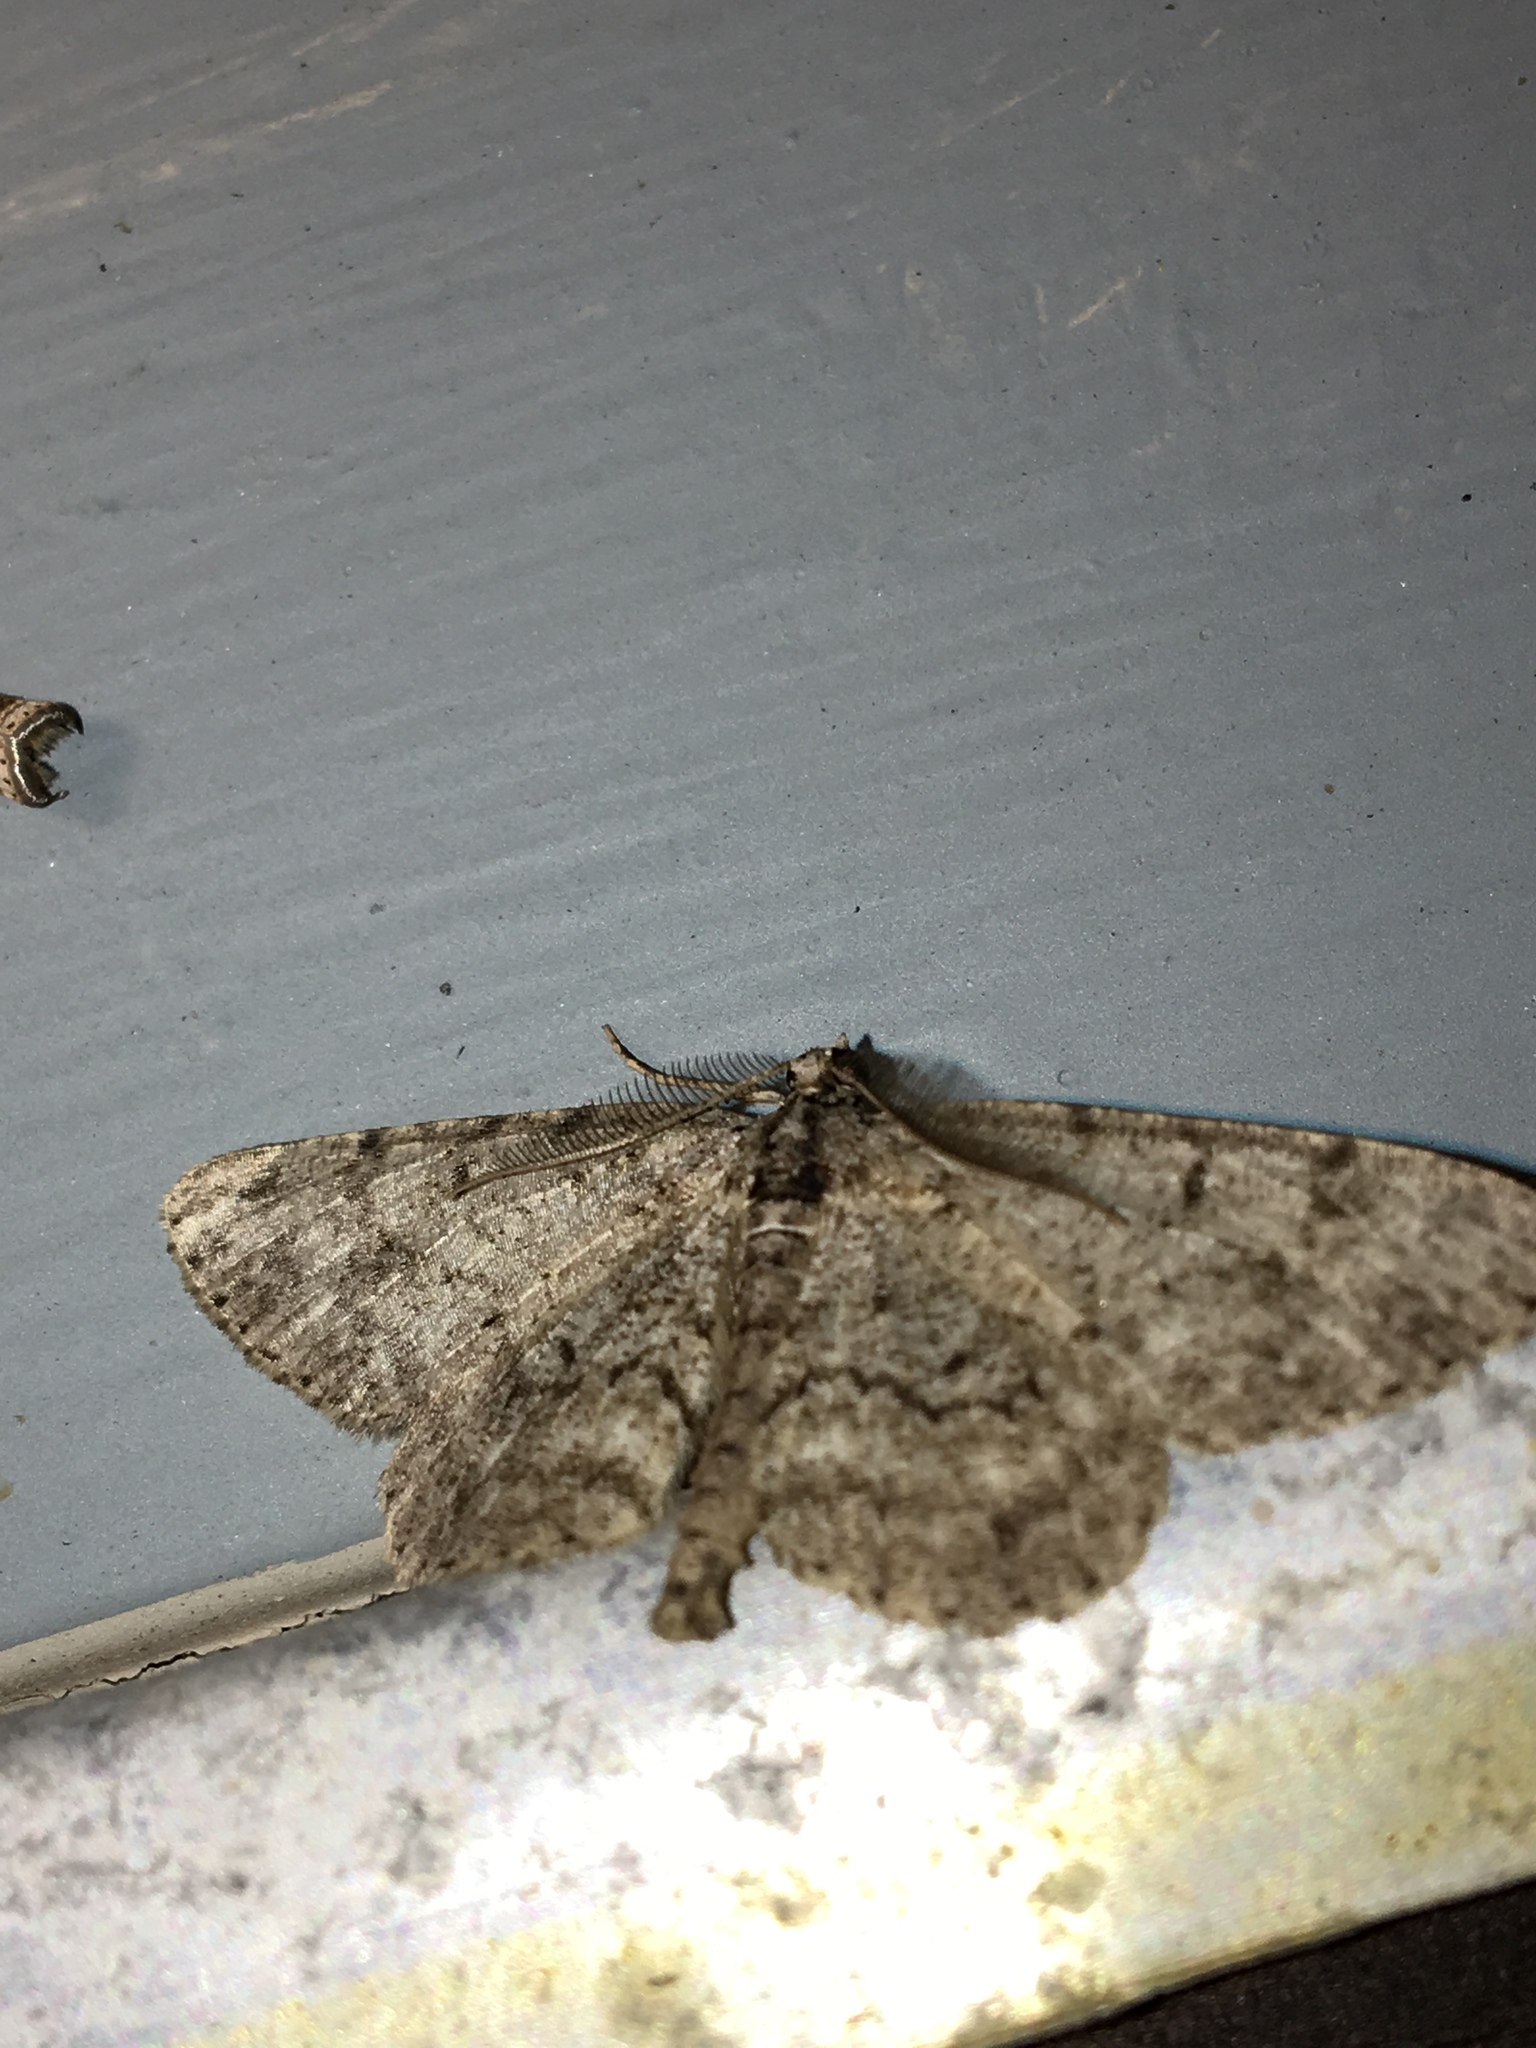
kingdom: Animalia
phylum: Arthropoda
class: Insecta
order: Lepidoptera
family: Geometridae
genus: Protoboarmia
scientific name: Protoboarmia porcelaria
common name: Porcelain gray
